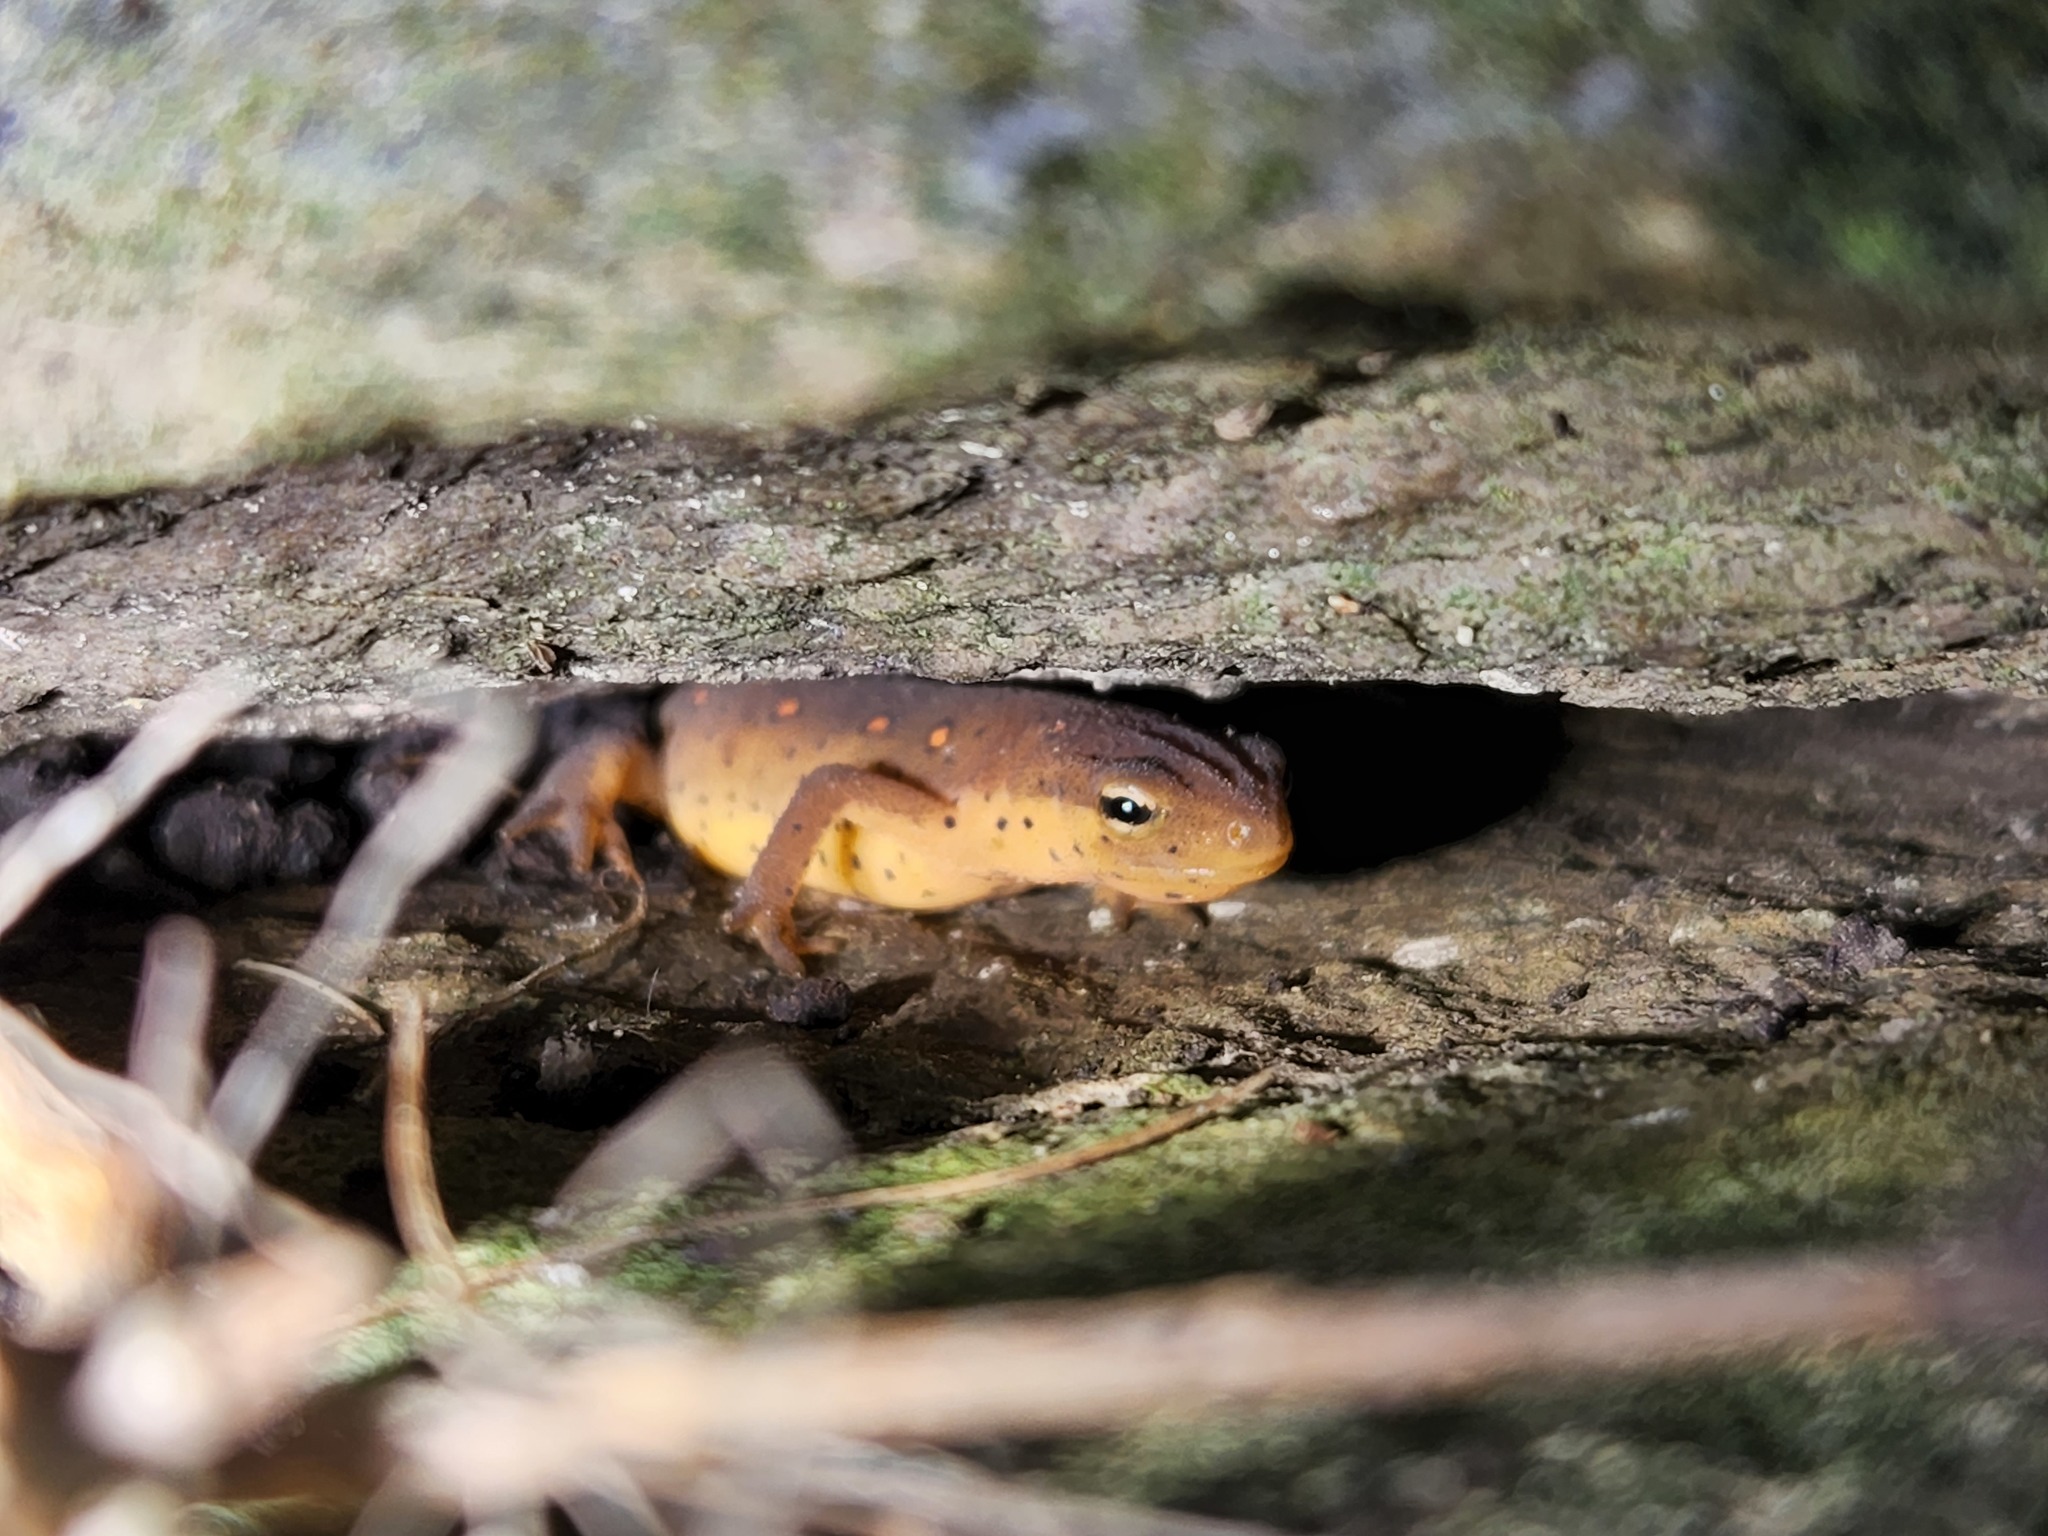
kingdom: Animalia
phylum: Chordata
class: Amphibia
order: Caudata
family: Salamandridae
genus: Notophthalmus
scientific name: Notophthalmus viridescens
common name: Eastern newt
